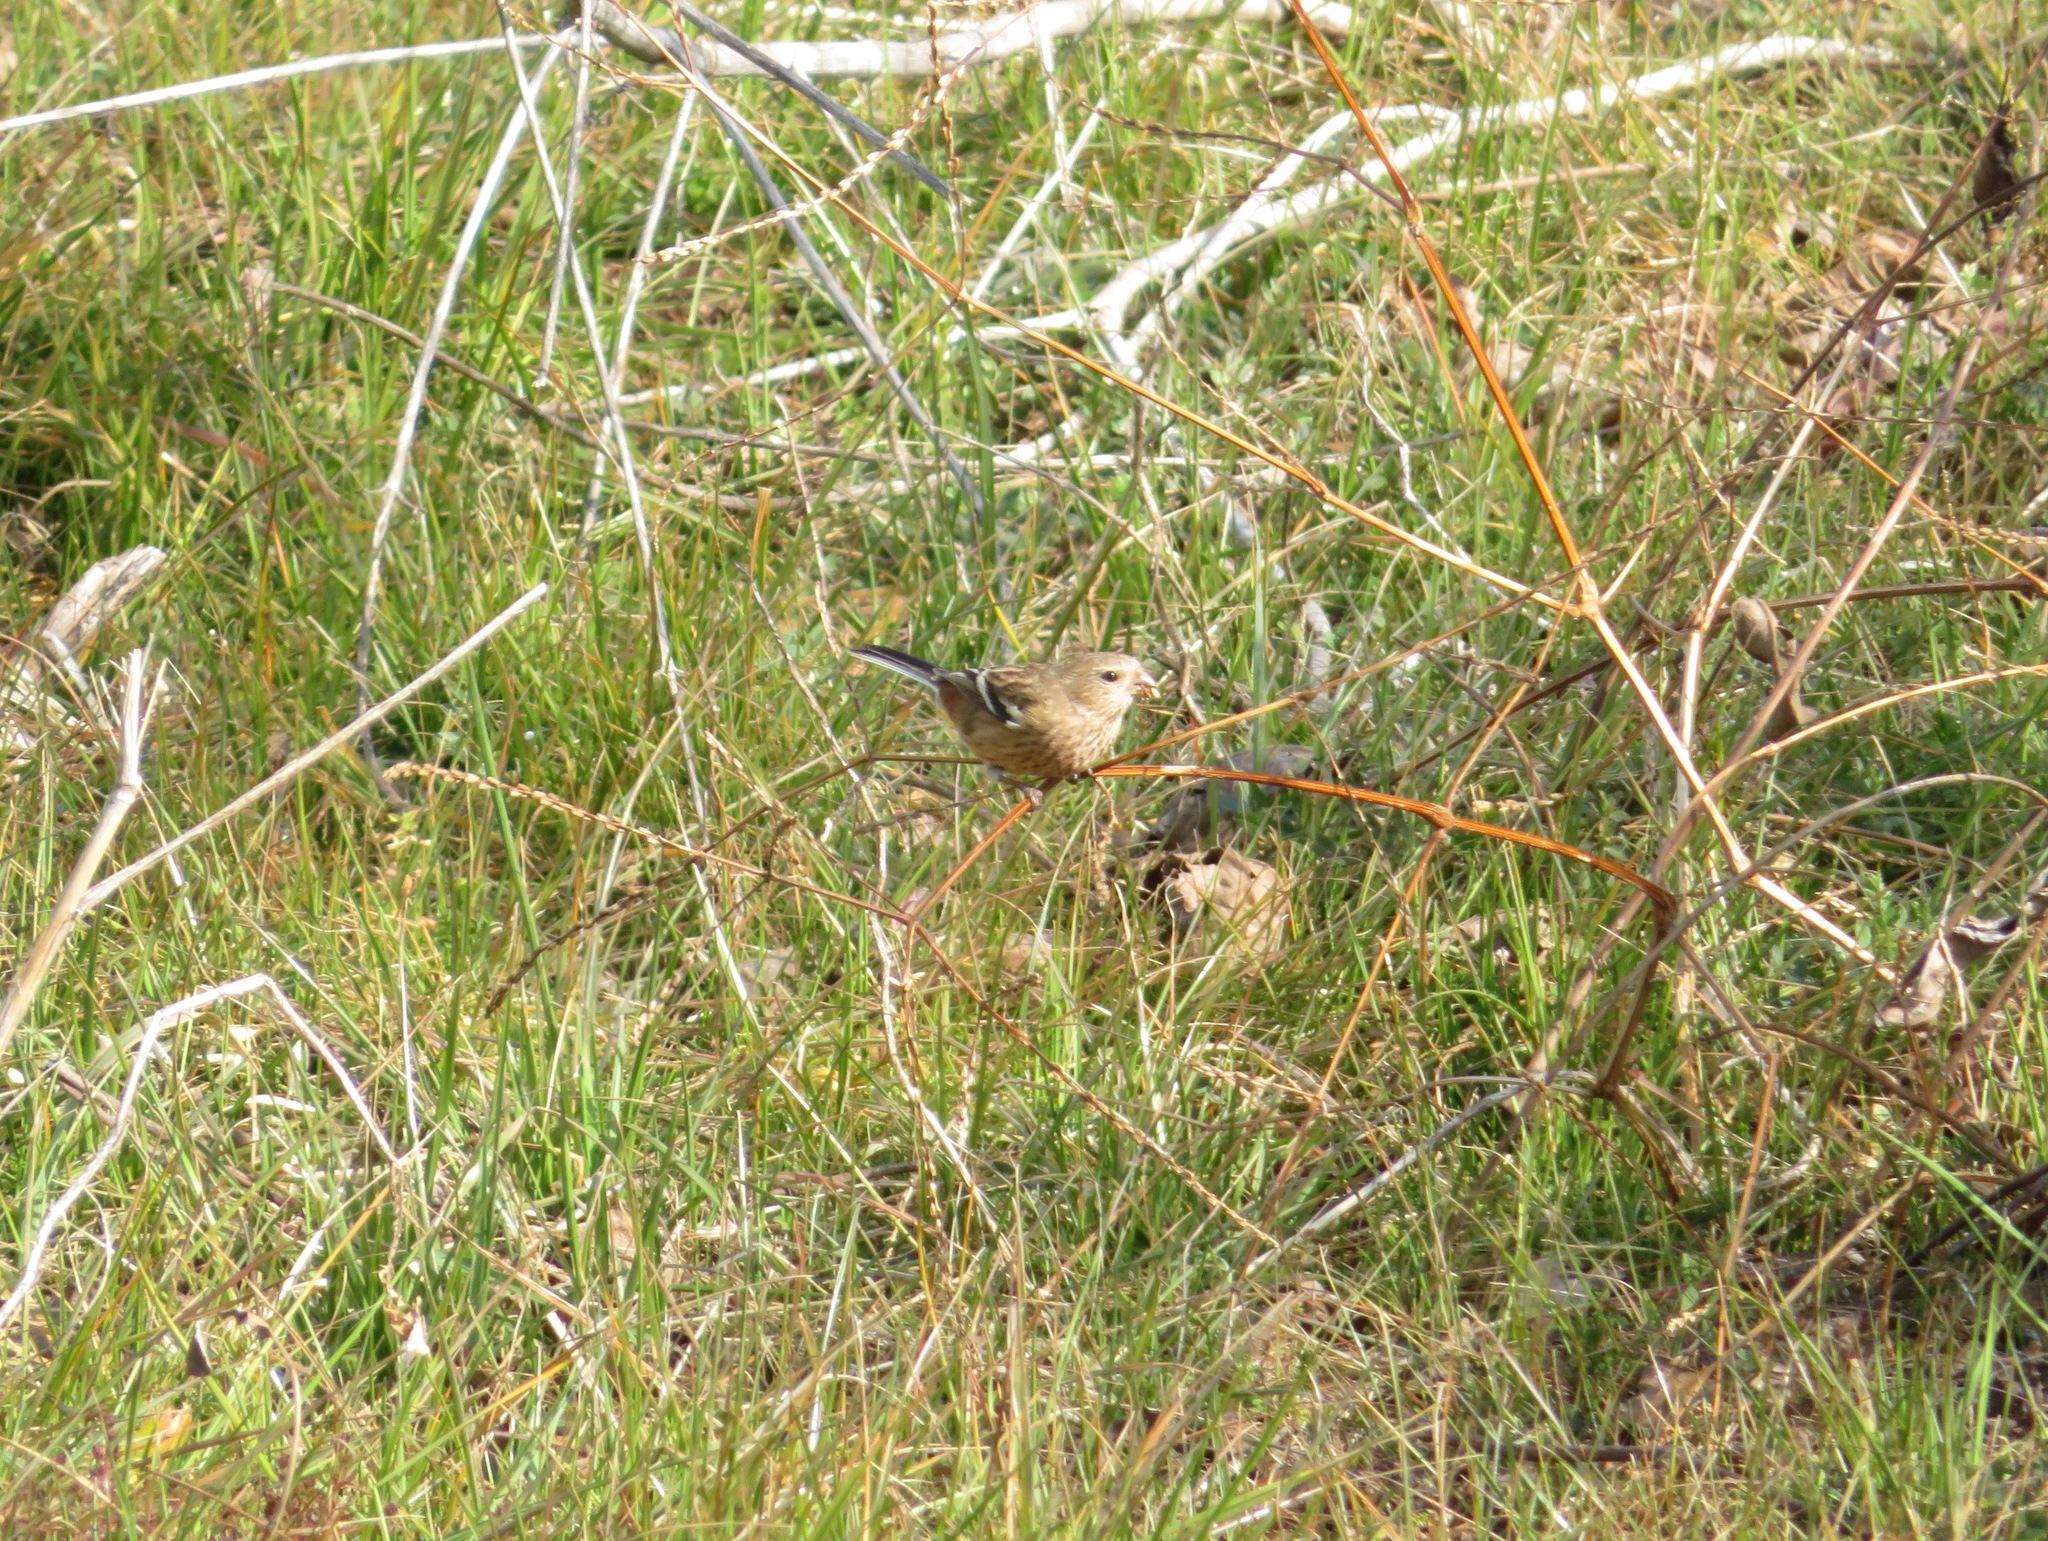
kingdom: Animalia
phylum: Chordata
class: Aves
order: Passeriformes
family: Fringillidae
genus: Carpodacus
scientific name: Carpodacus sibiricus
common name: Long-tailed rosefinch
